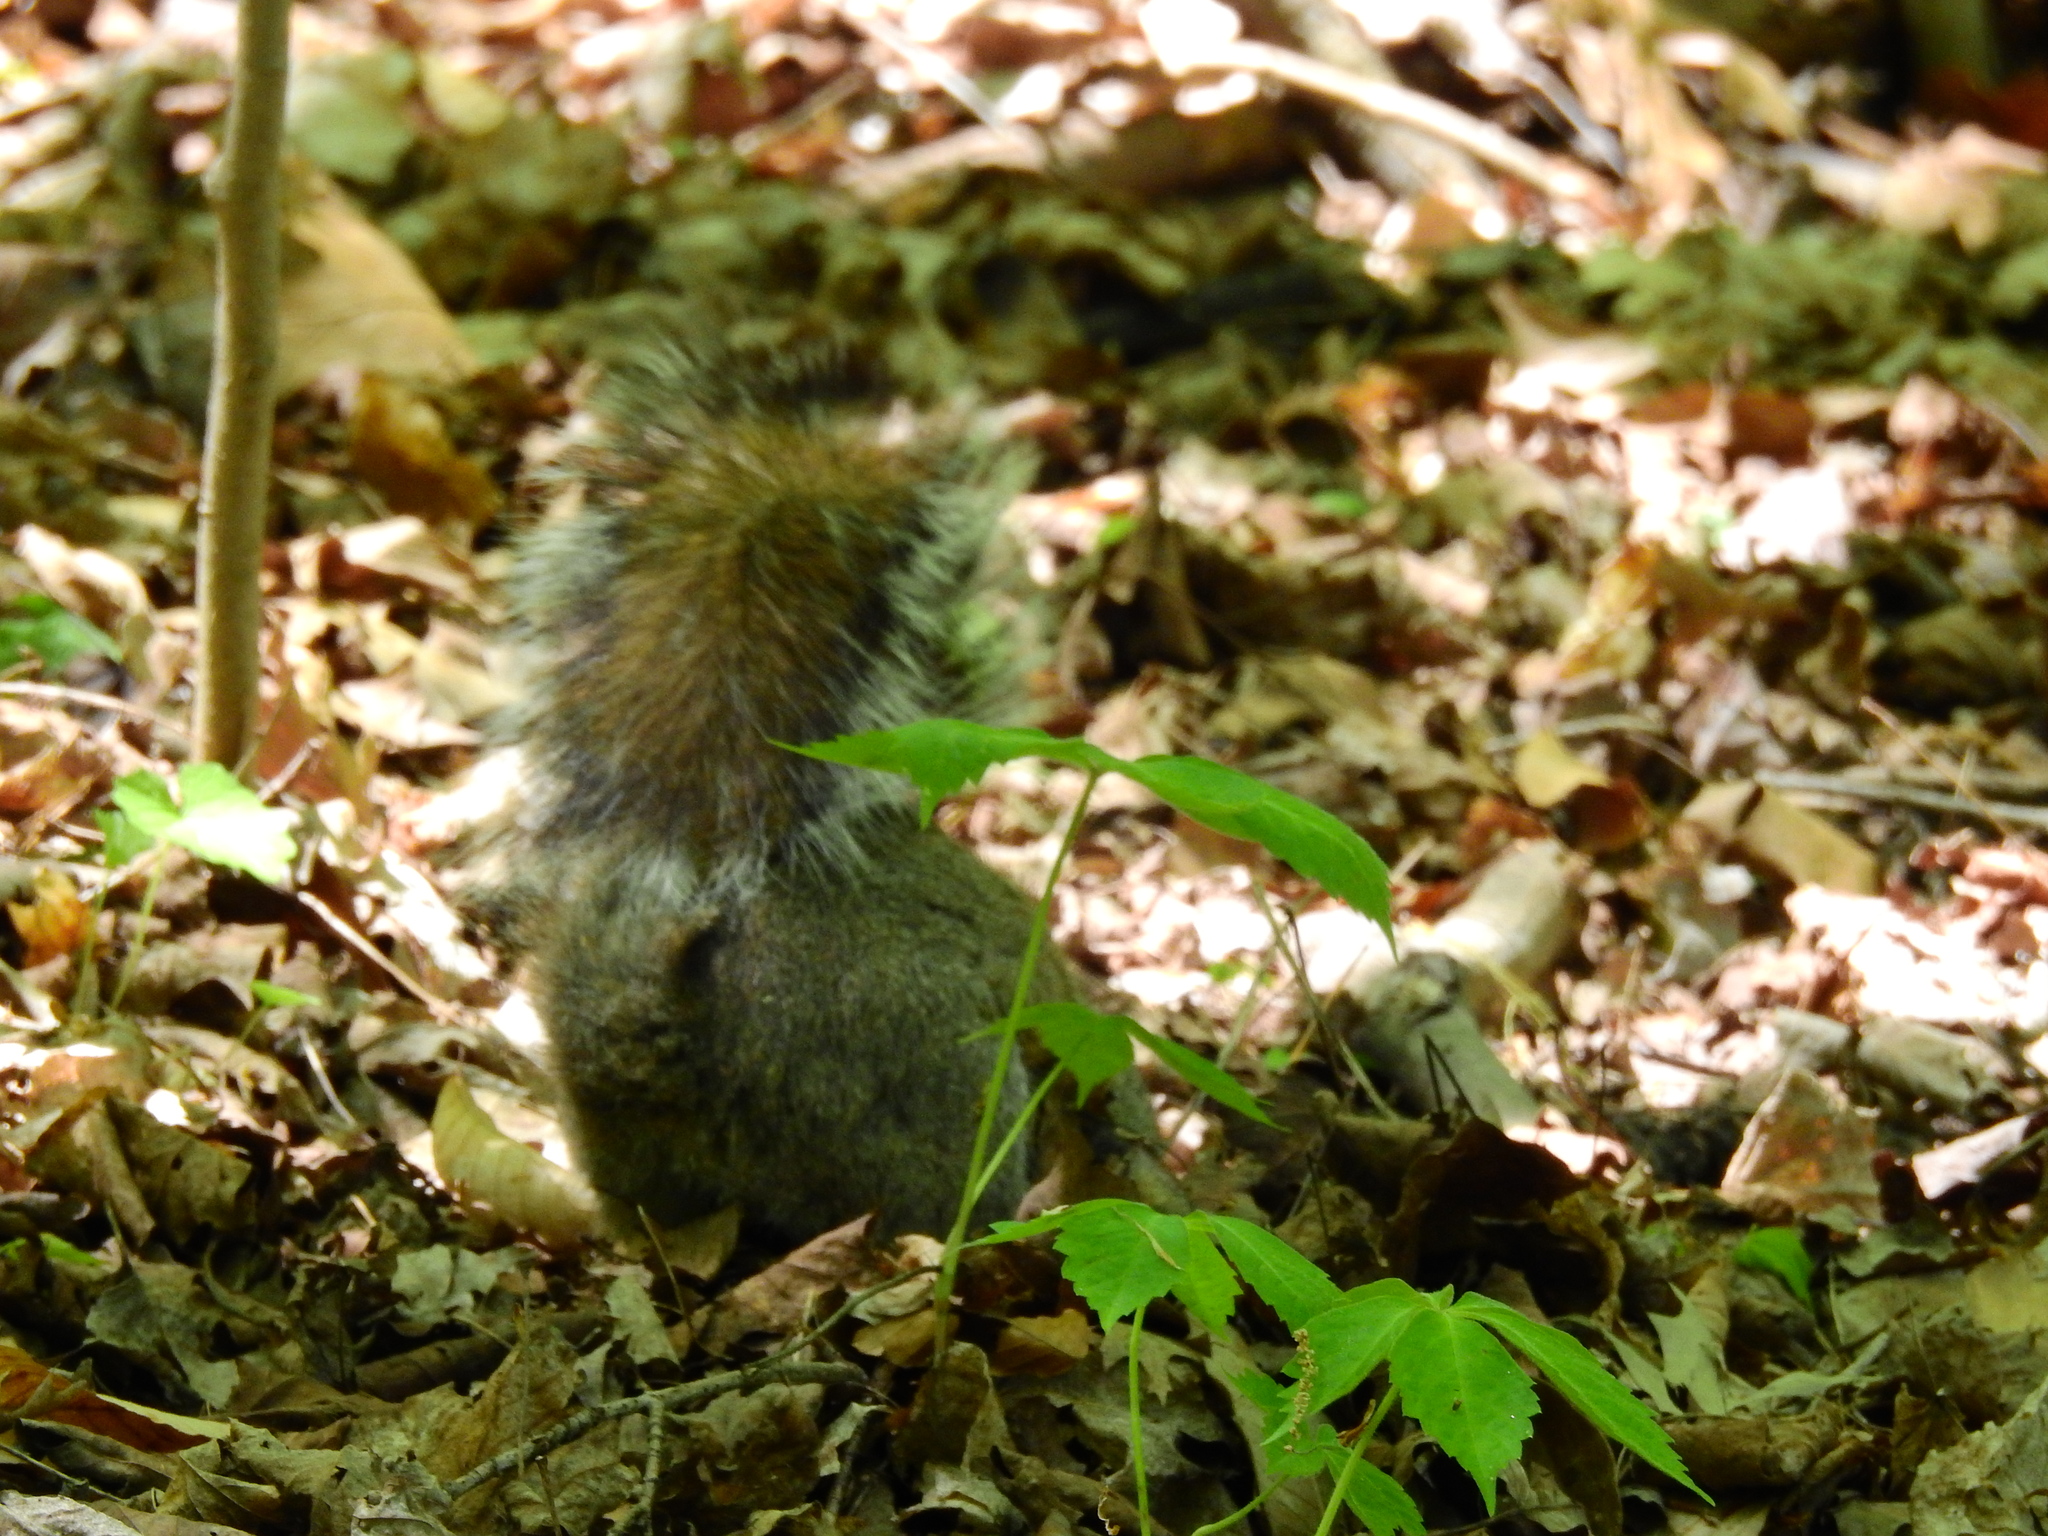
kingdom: Animalia
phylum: Chordata
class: Mammalia
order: Rodentia
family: Sciuridae
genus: Sciurus
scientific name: Sciurus carolinensis
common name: Eastern gray squirrel
